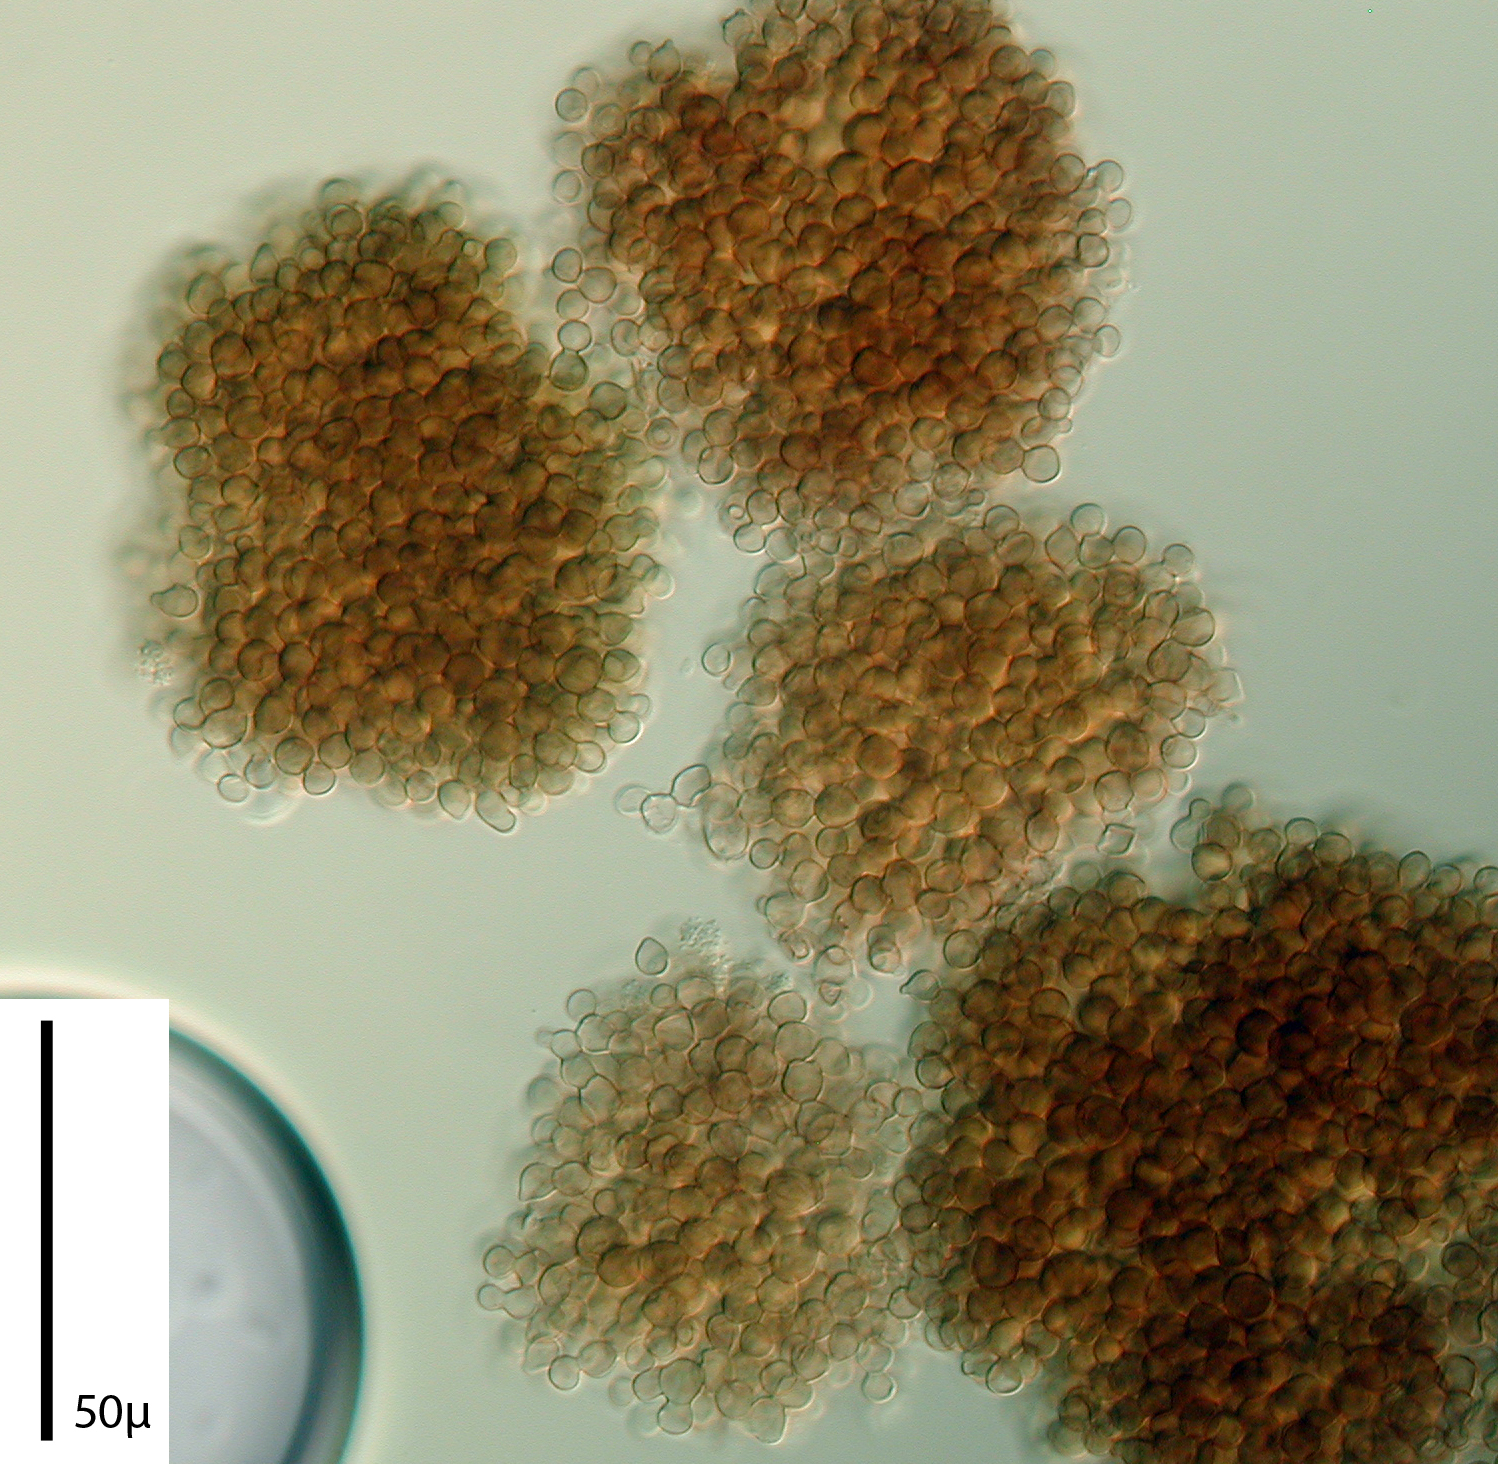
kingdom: Fungi
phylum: Ascomycota
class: Leotiomycetes
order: Helotiales
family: Hyaloscyphaceae
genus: Pseudaegerita
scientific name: Pseudaegerita foliicola
